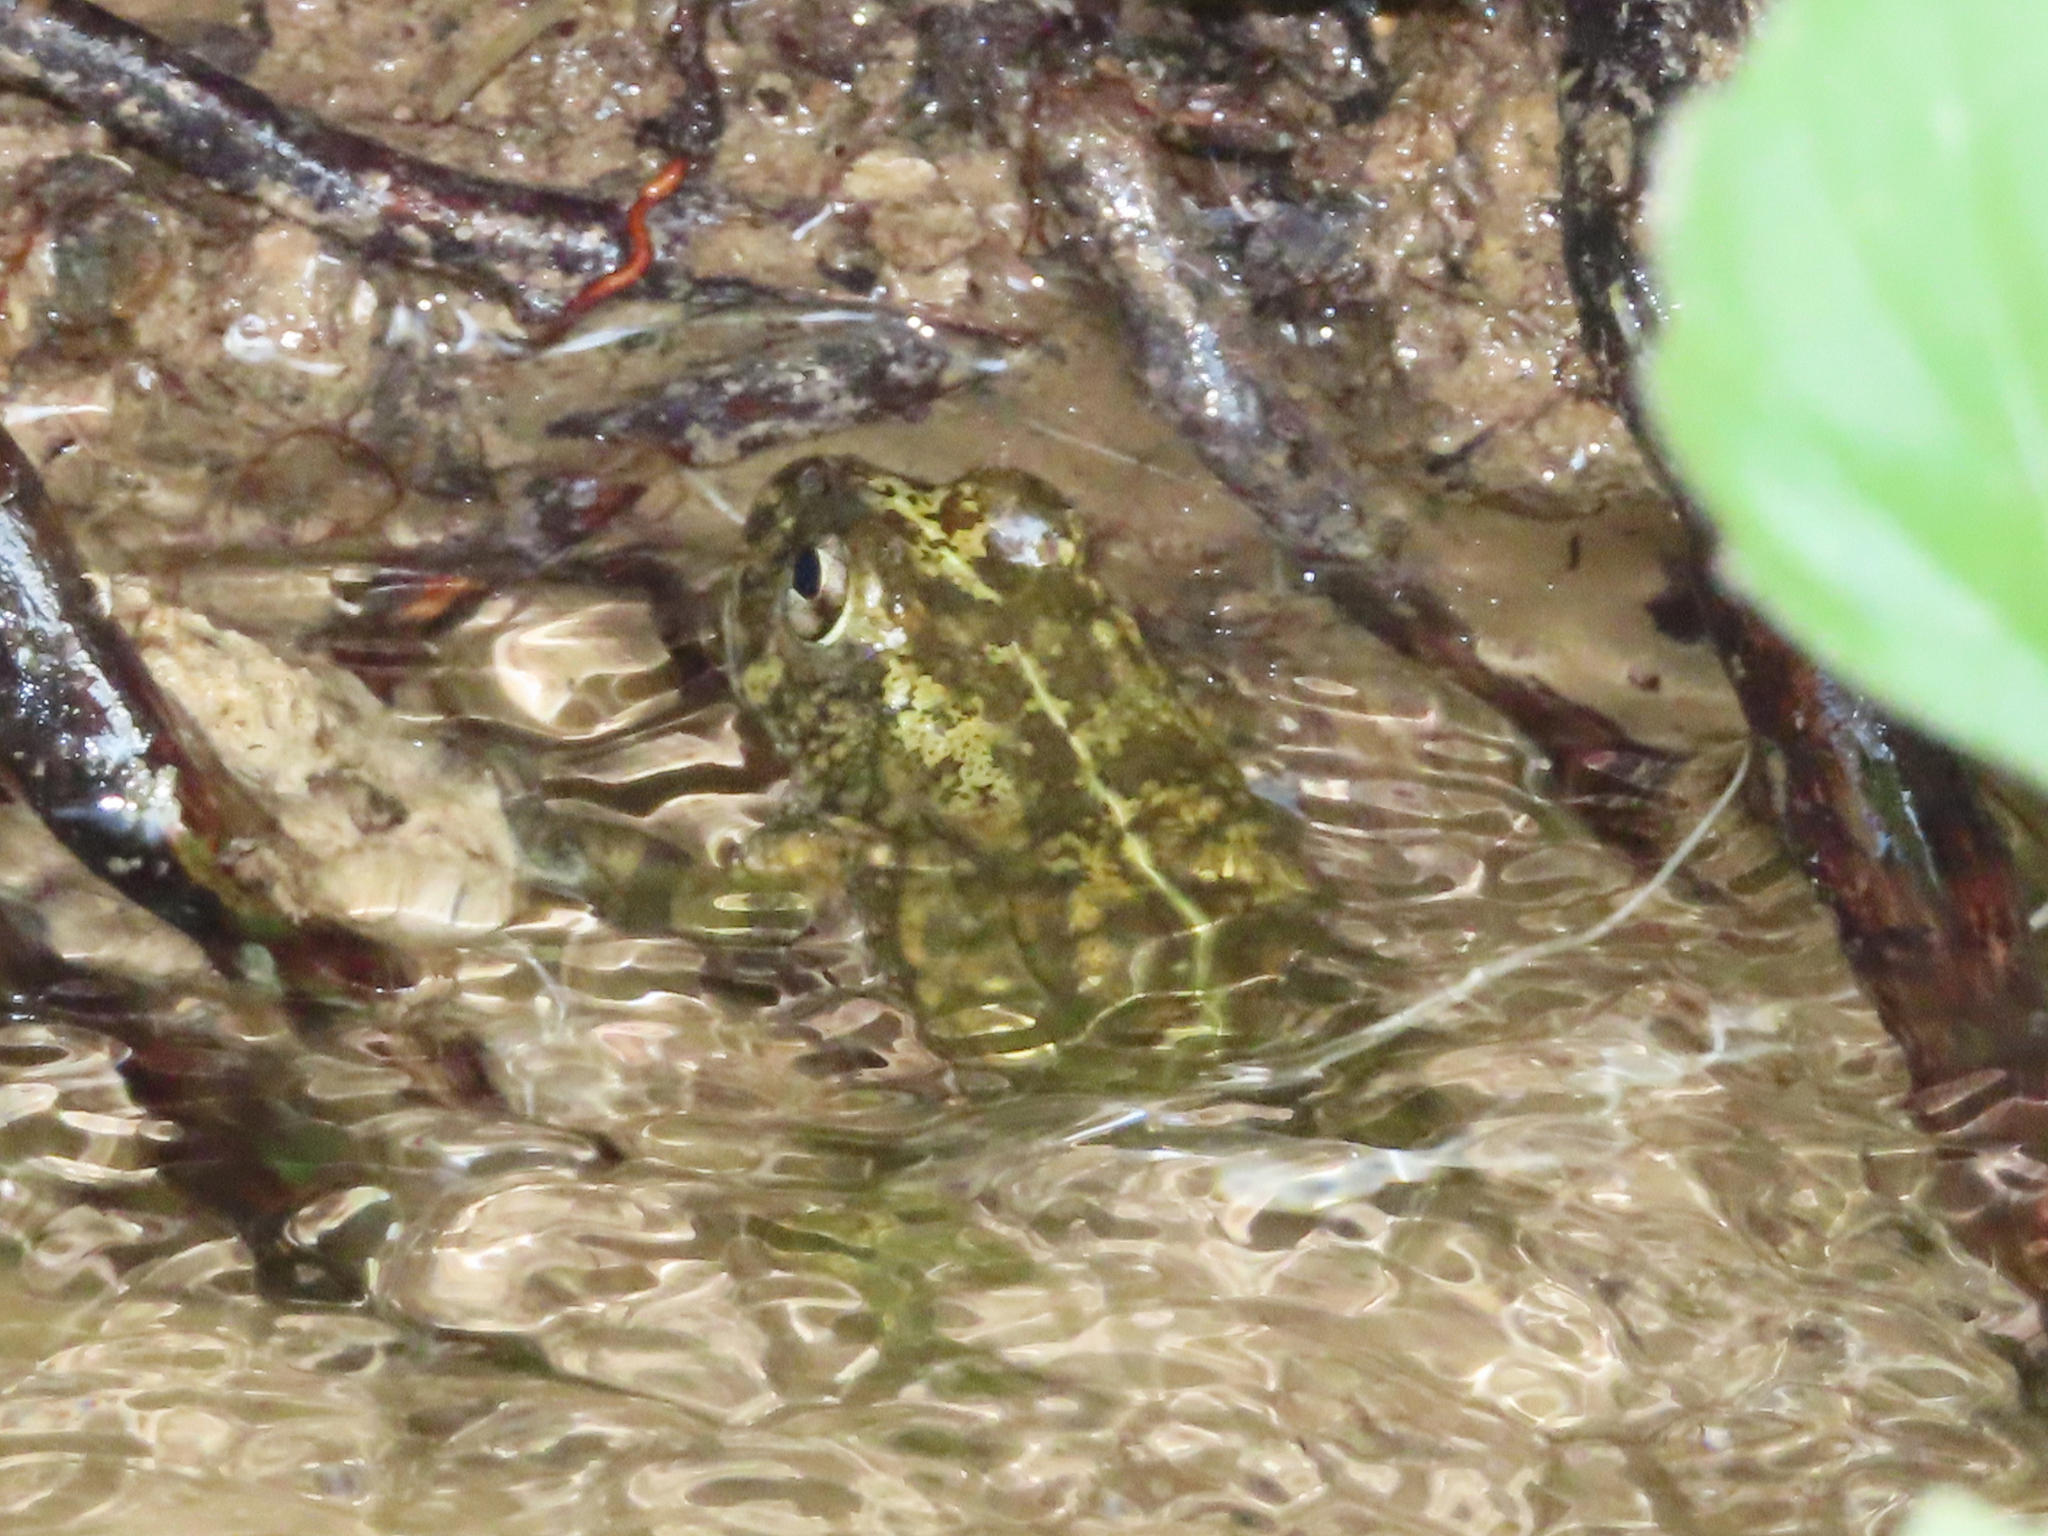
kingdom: Animalia
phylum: Chordata
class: Amphibia
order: Anura
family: Bufonidae
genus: Sclerophrys
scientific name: Sclerophrys arabica
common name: Arabian toad
